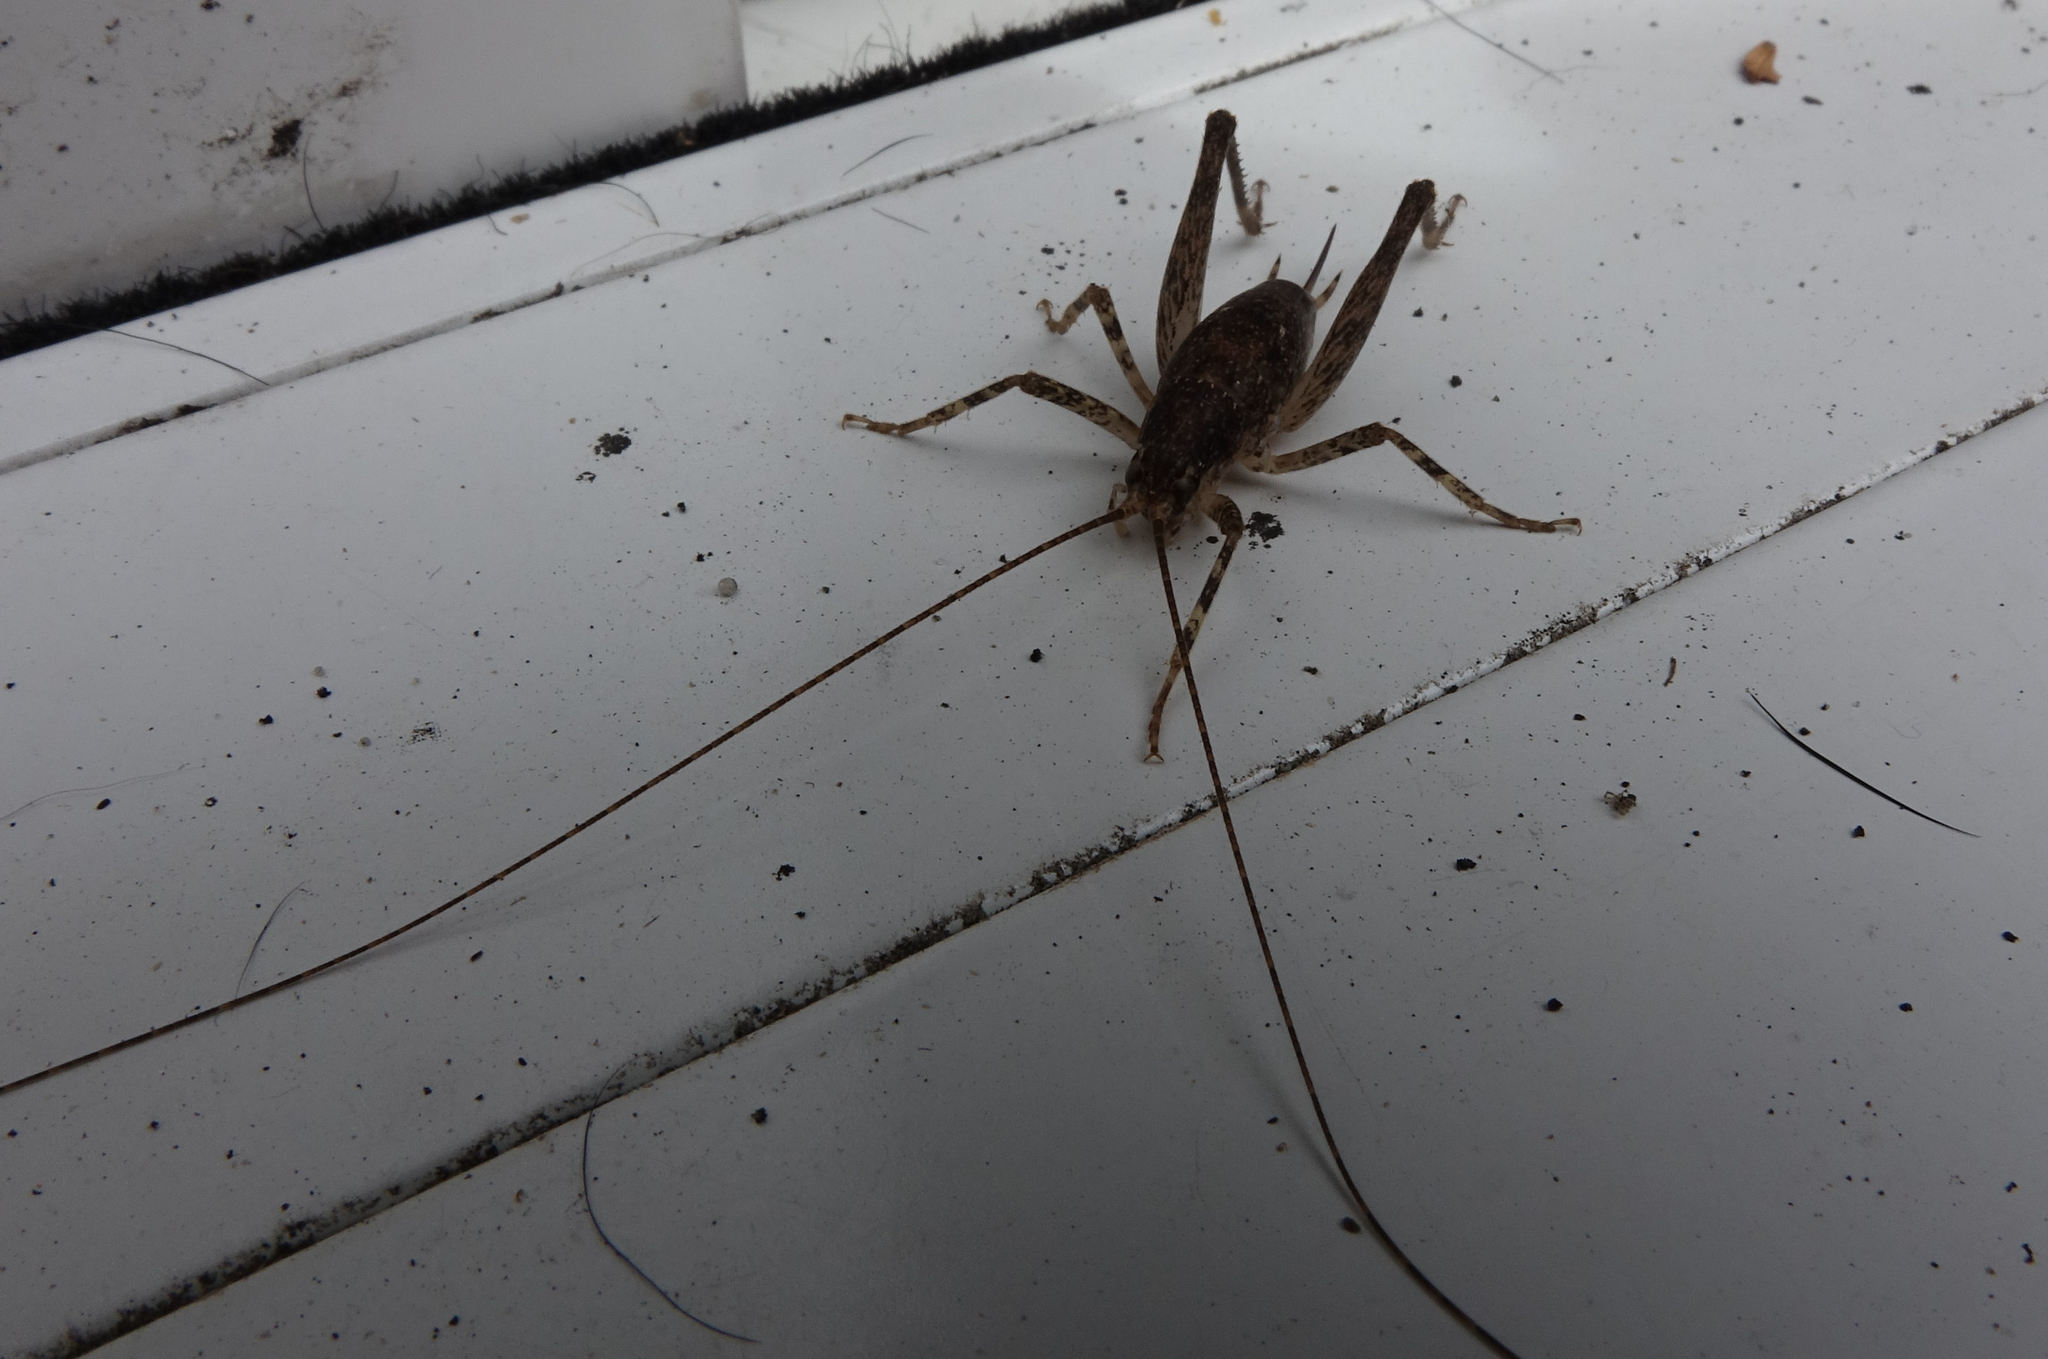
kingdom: Animalia
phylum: Arthropoda
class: Insecta
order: Orthoptera
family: Rhaphidophoridae
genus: Isoplectron
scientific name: Isoplectron armatum
